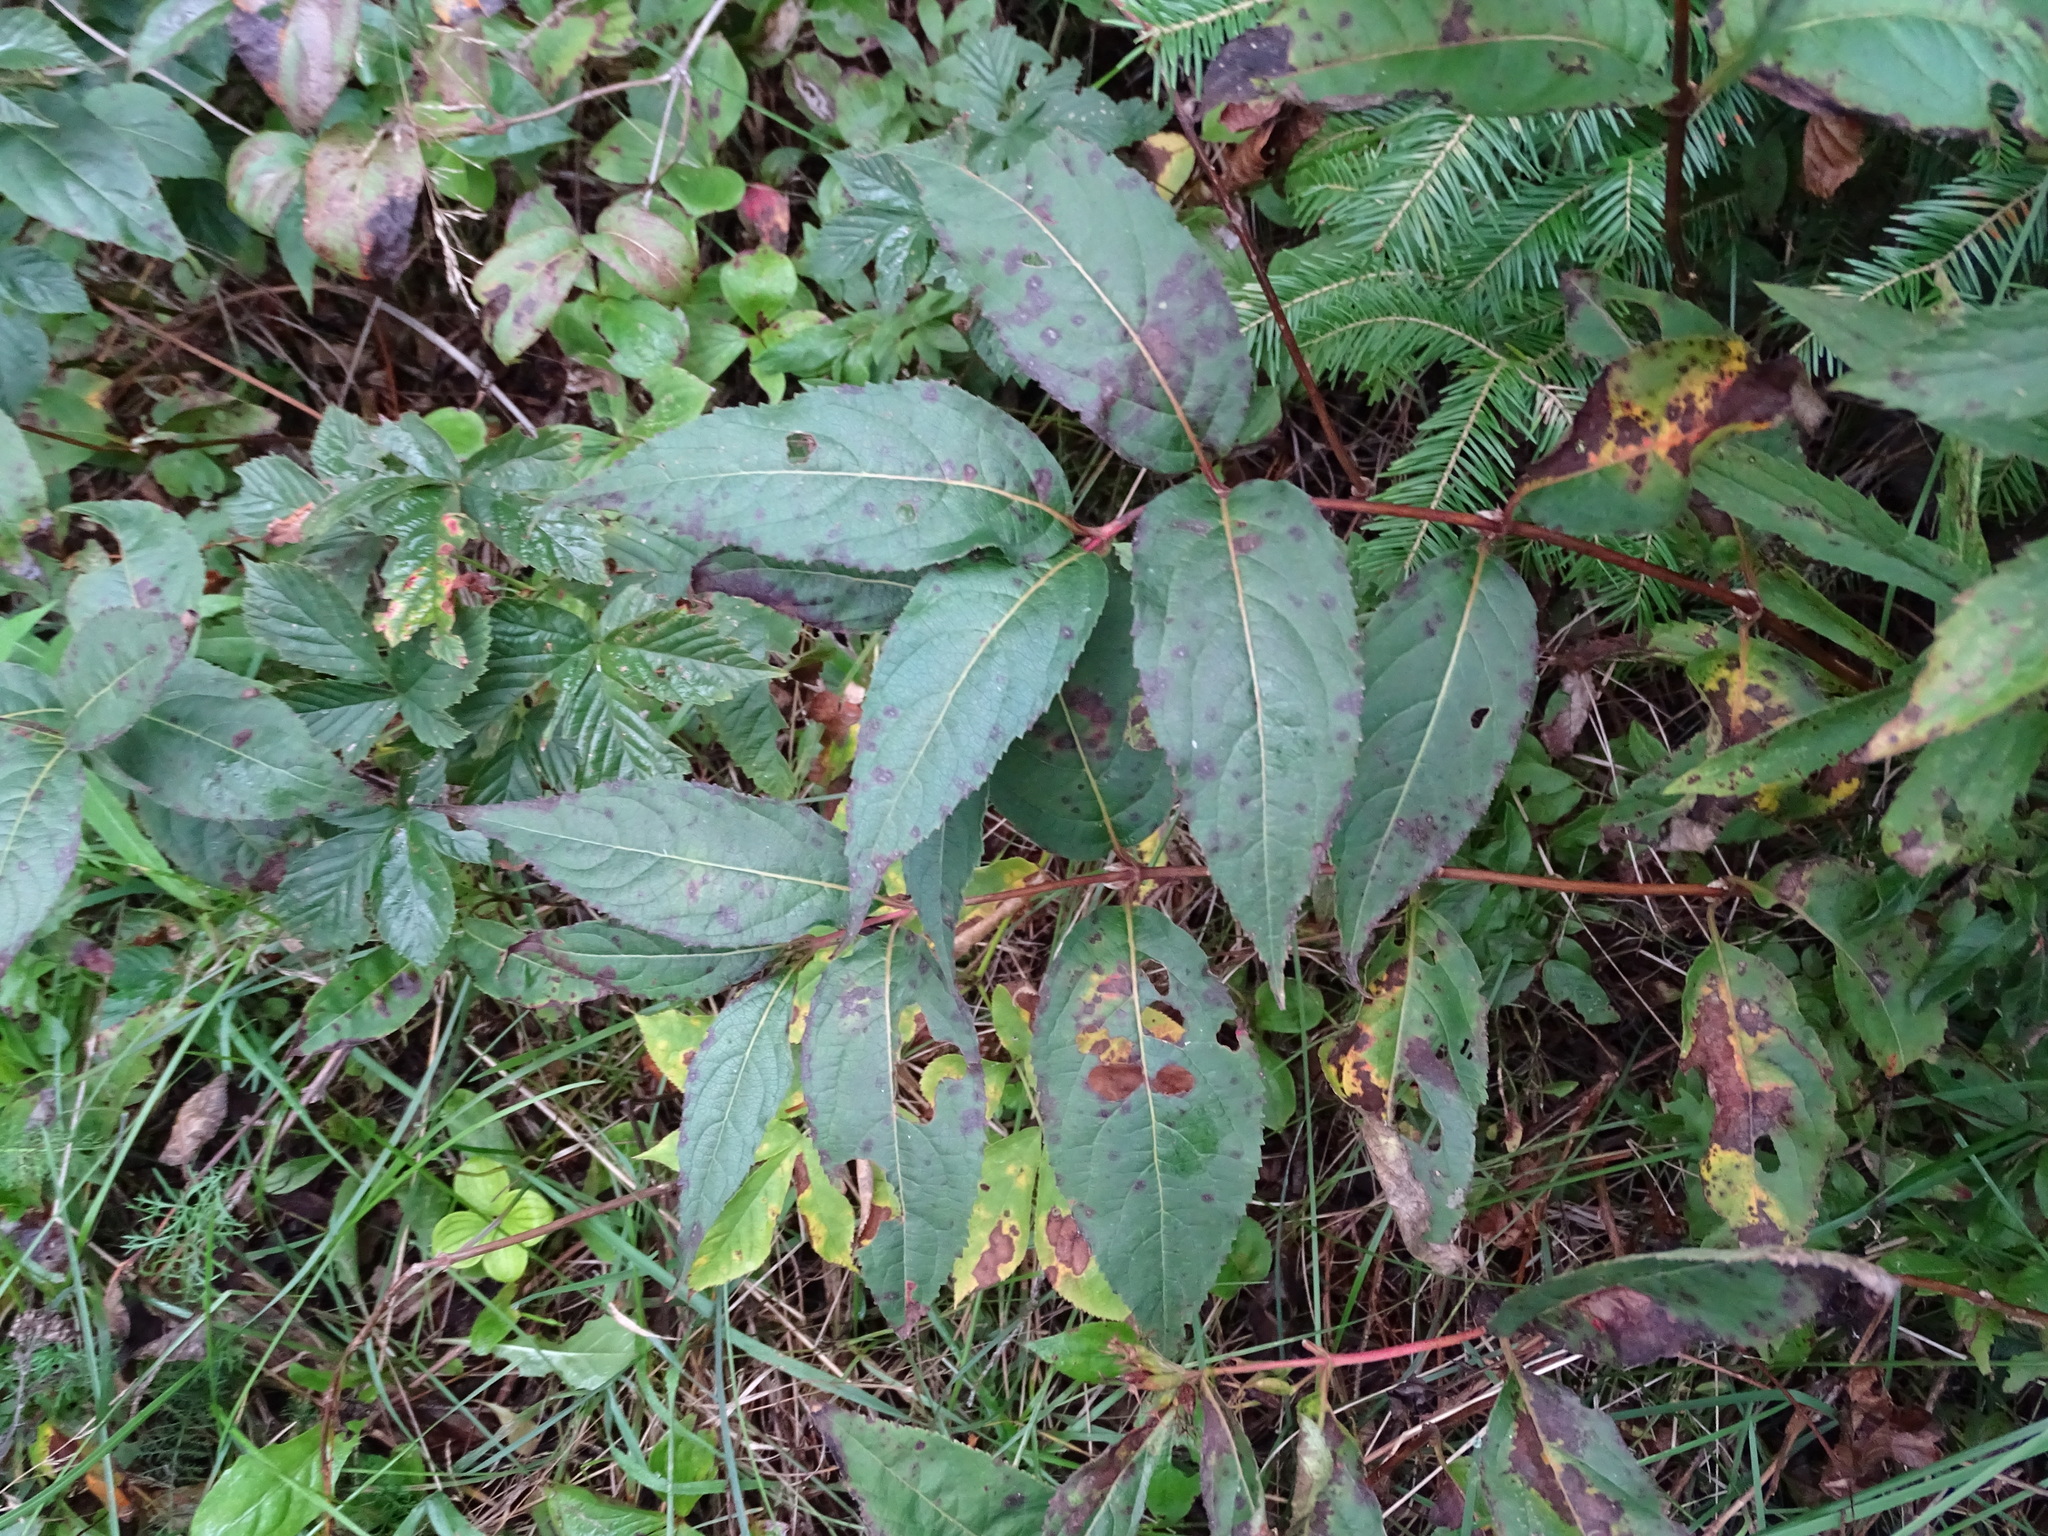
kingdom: Plantae
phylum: Tracheophyta
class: Magnoliopsida
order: Dipsacales
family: Caprifoliaceae
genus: Diervilla
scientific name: Diervilla lonicera
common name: Bush-honeysuckle
